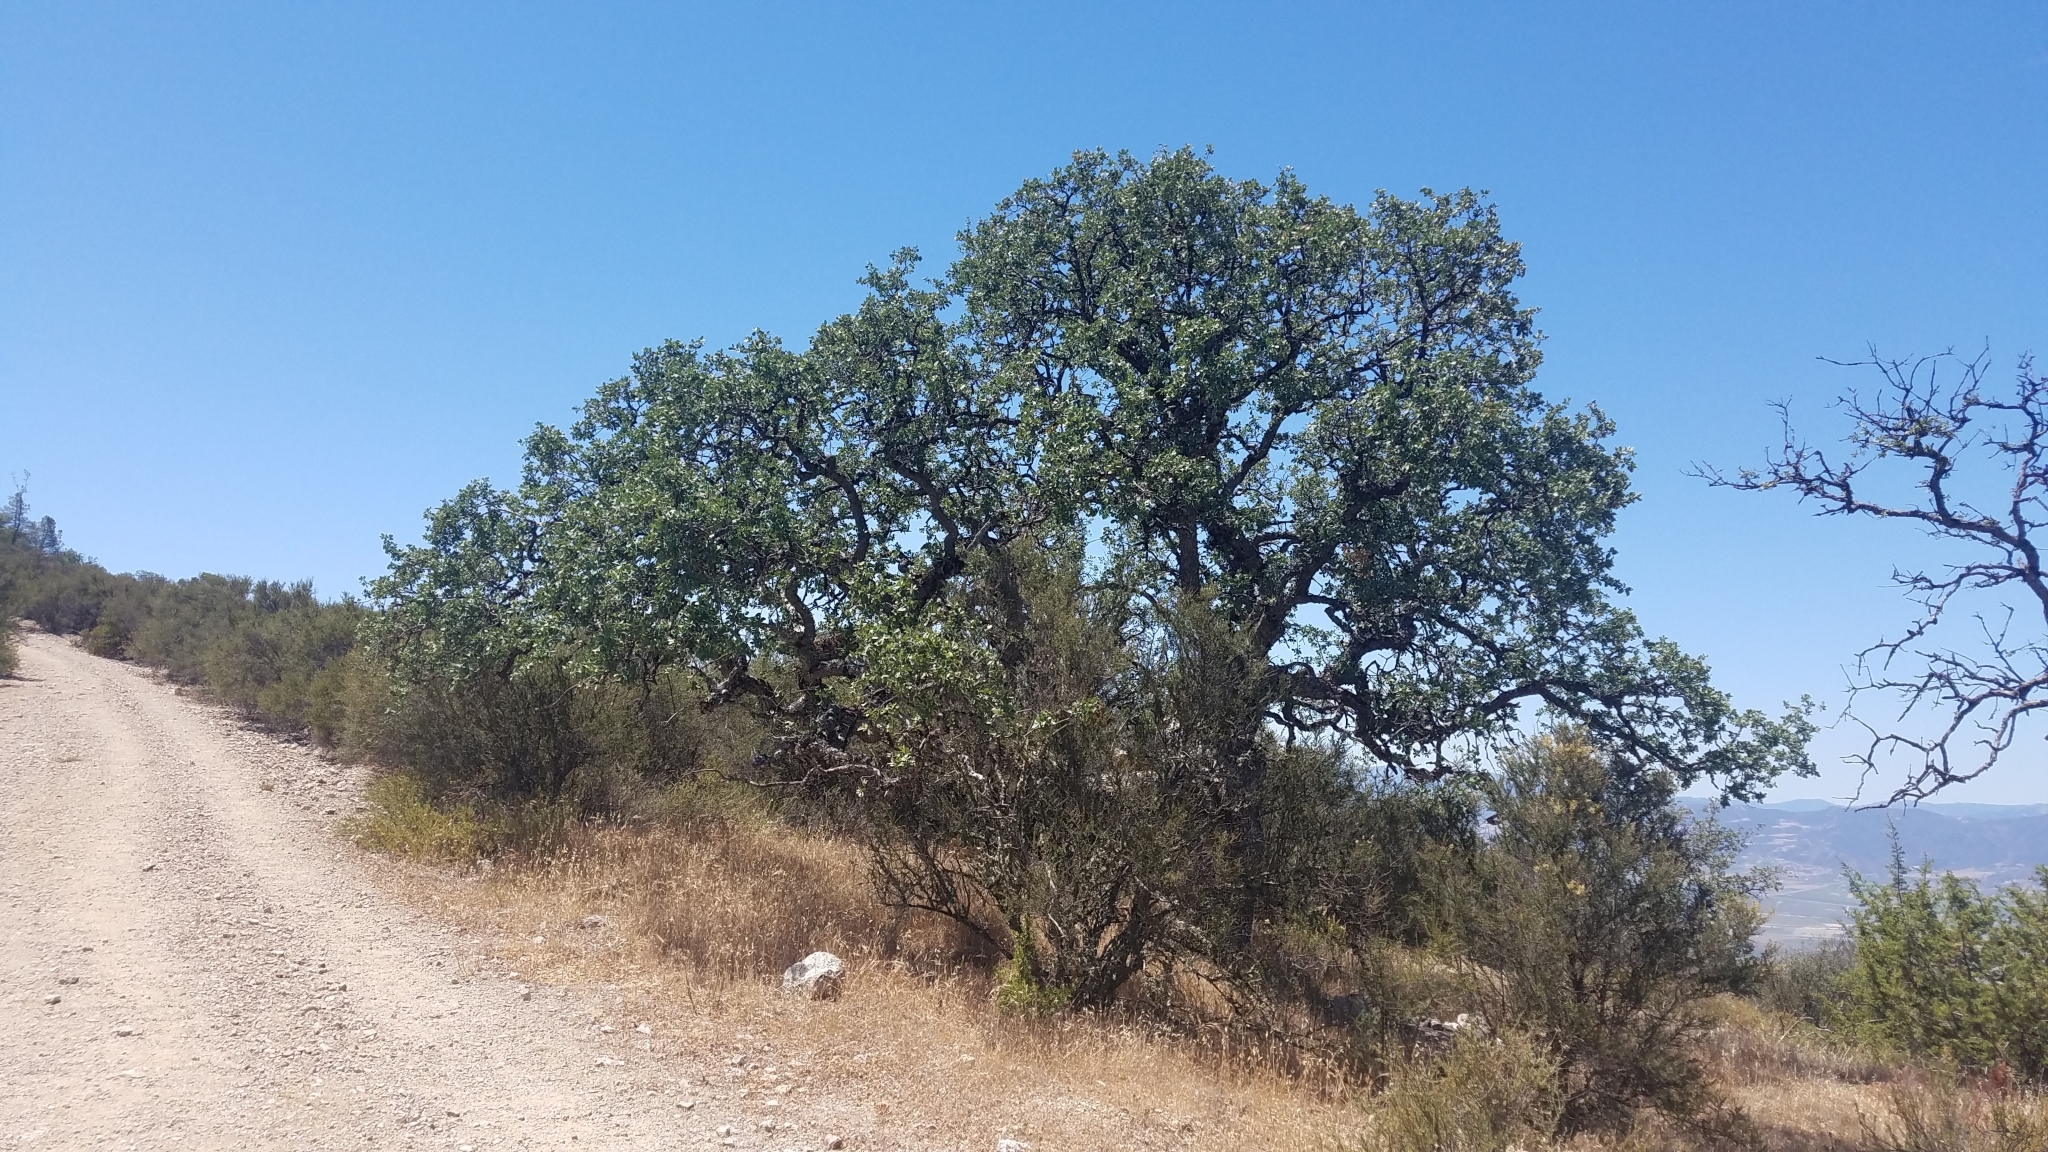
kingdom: Plantae
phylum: Tracheophyta
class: Magnoliopsida
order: Fagales
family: Fagaceae
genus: Quercus
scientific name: Quercus douglasii
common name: Blue oak
